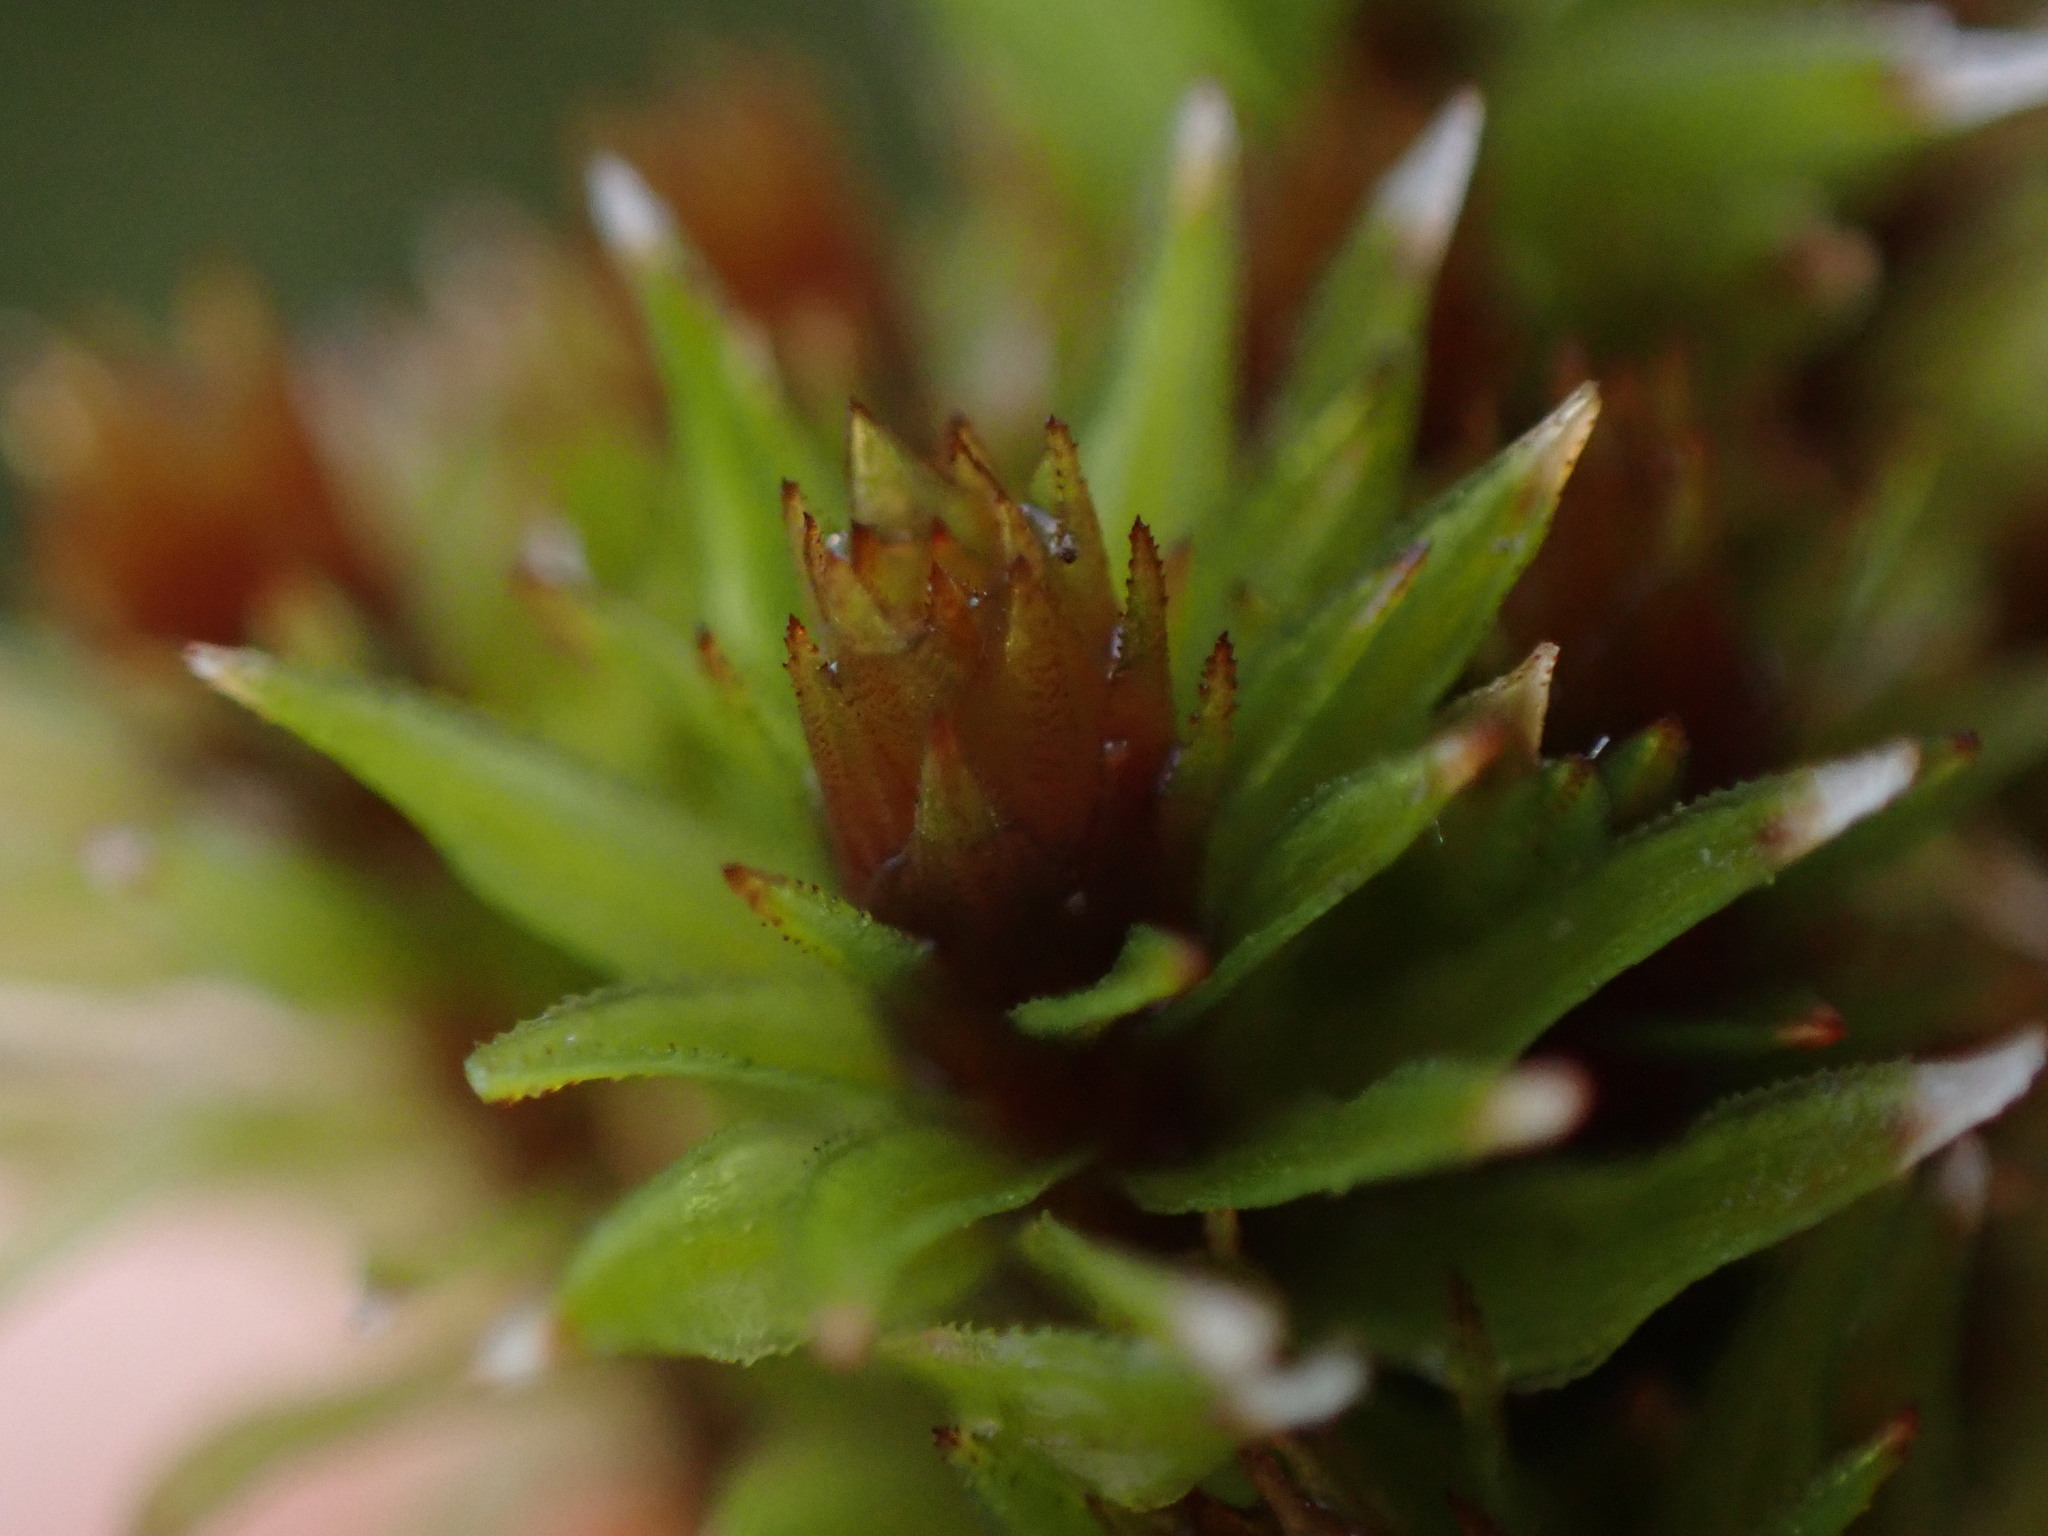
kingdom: Plantae
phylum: Bryophyta
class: Polytrichopsida
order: Polytrichales
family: Polytrichaceae
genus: Pogonatum
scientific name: Pogonatum contortum
